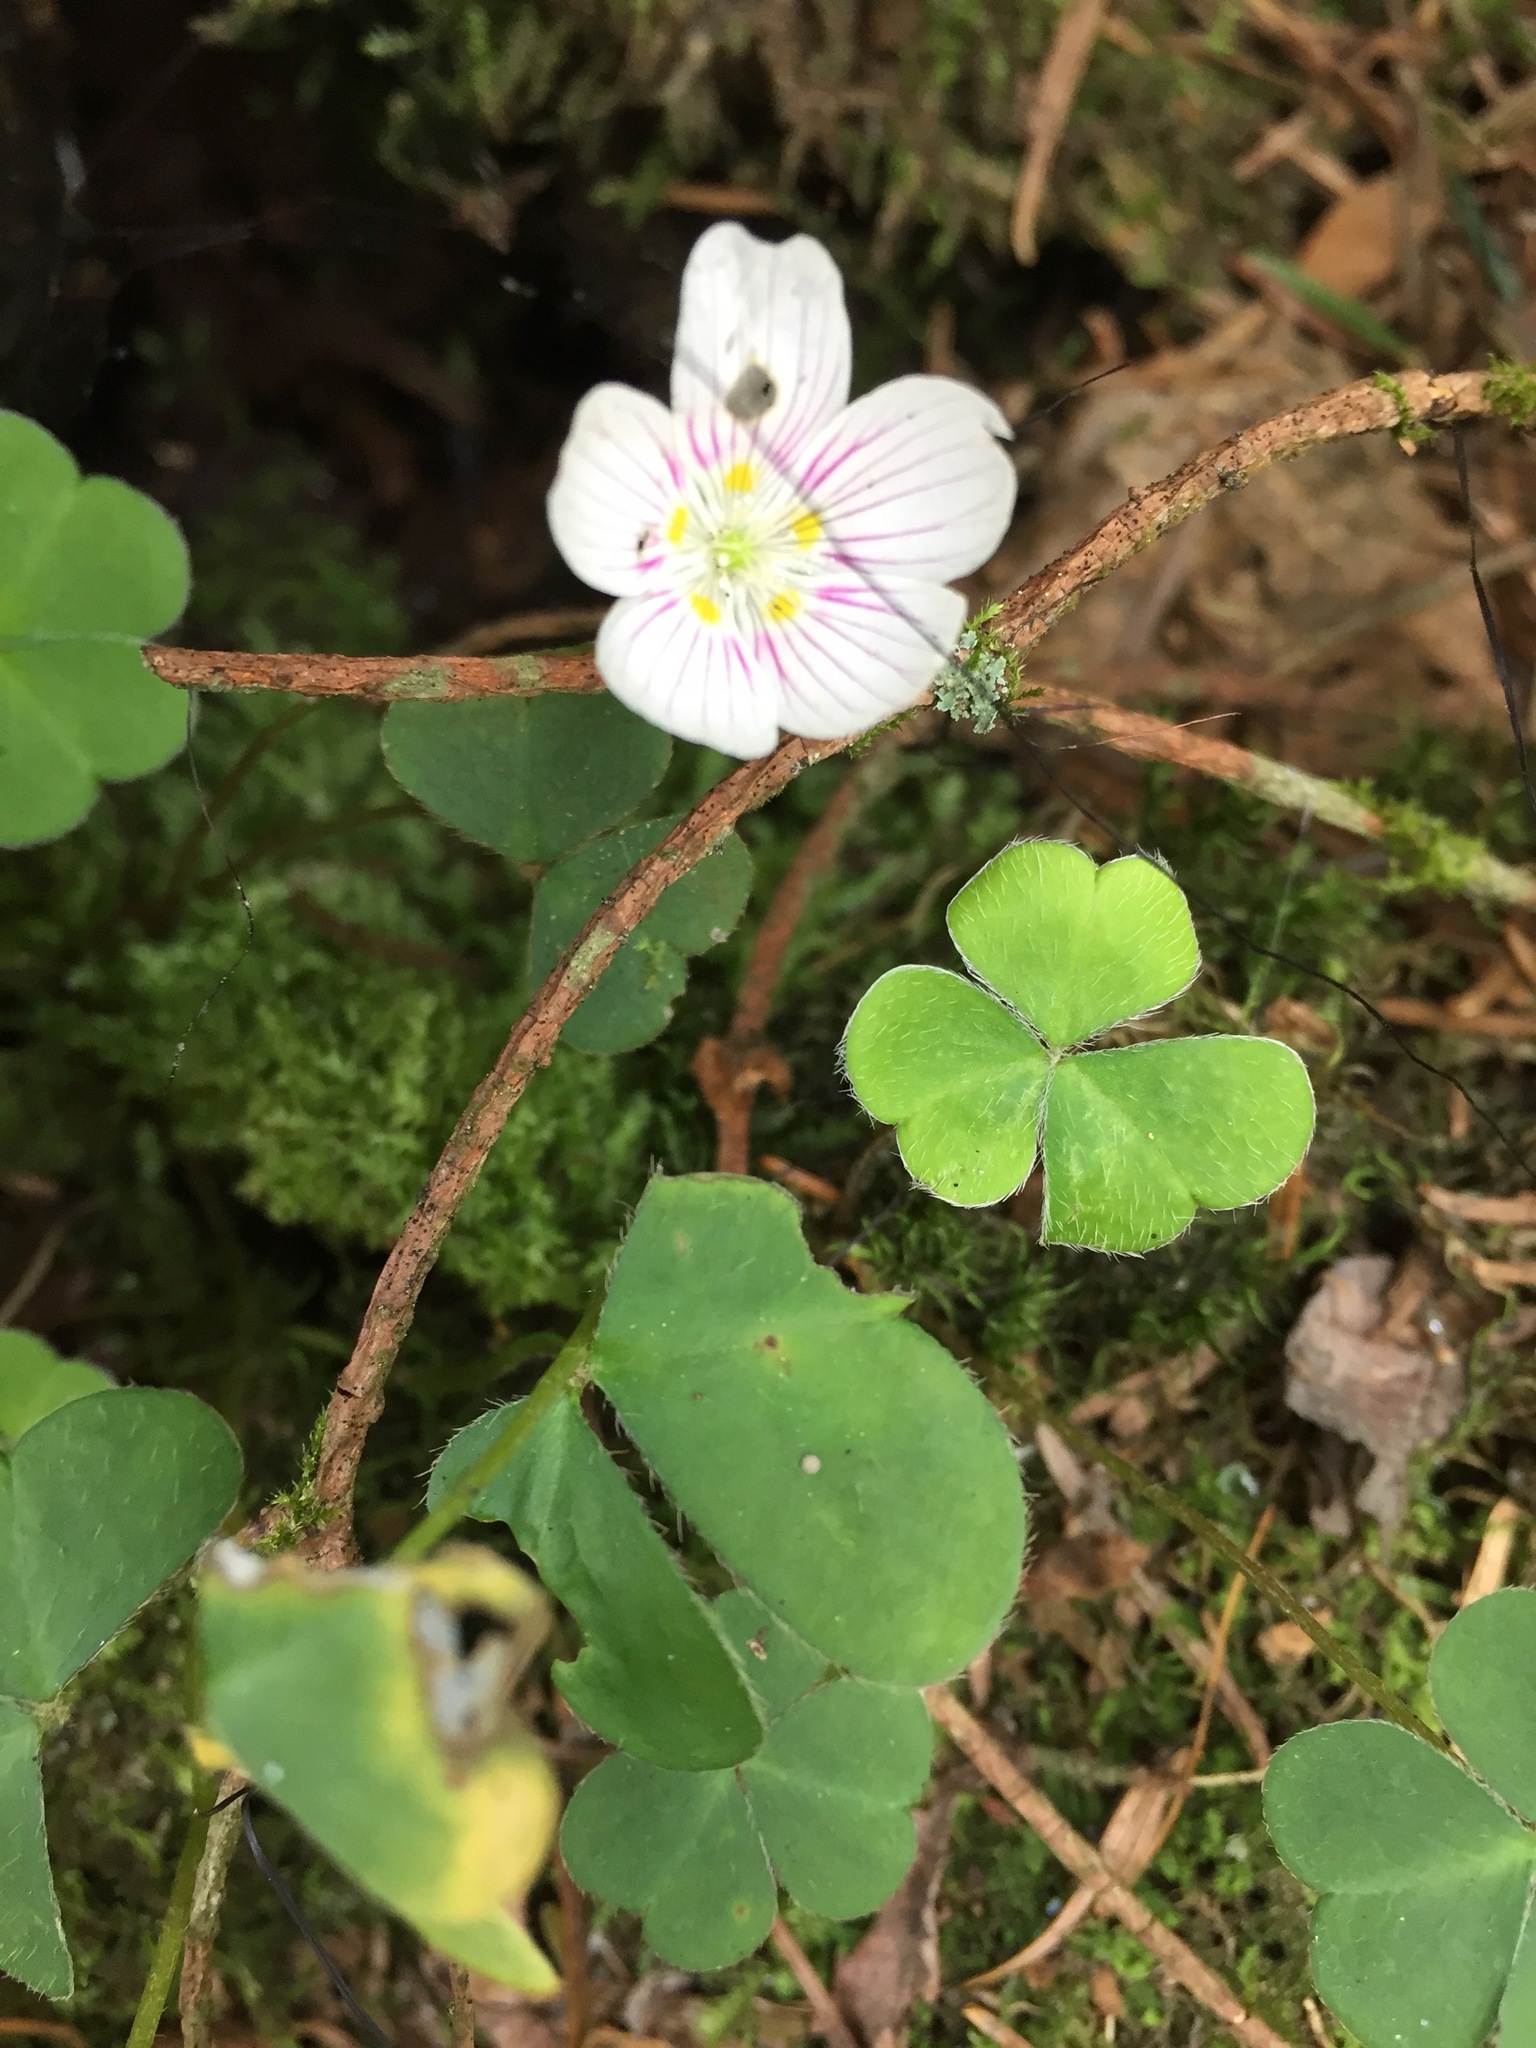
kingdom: Plantae
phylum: Tracheophyta
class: Magnoliopsida
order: Oxalidales
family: Oxalidaceae
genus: Oxalis
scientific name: Oxalis montana
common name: American wood-sorrel
